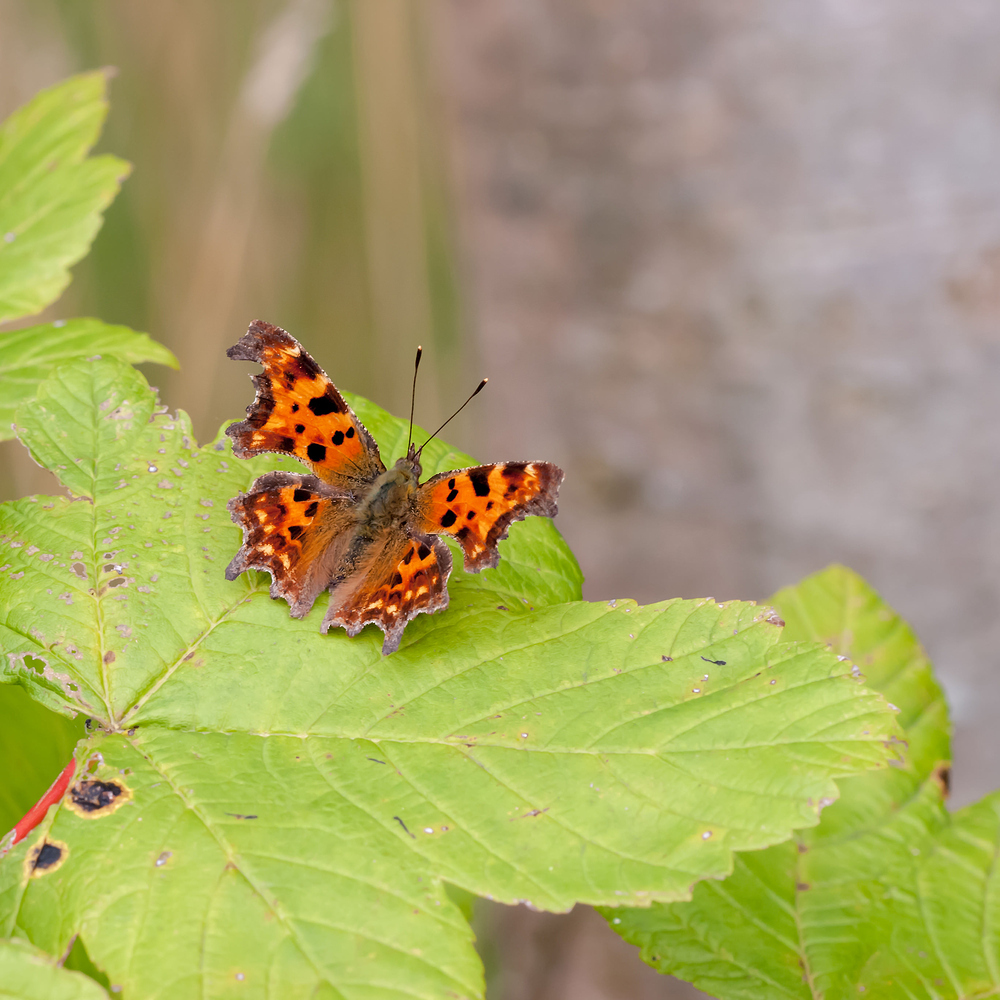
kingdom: Animalia
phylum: Arthropoda
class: Insecta
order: Lepidoptera
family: Nymphalidae
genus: Polygonia
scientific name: Polygonia c-album
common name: Comma
